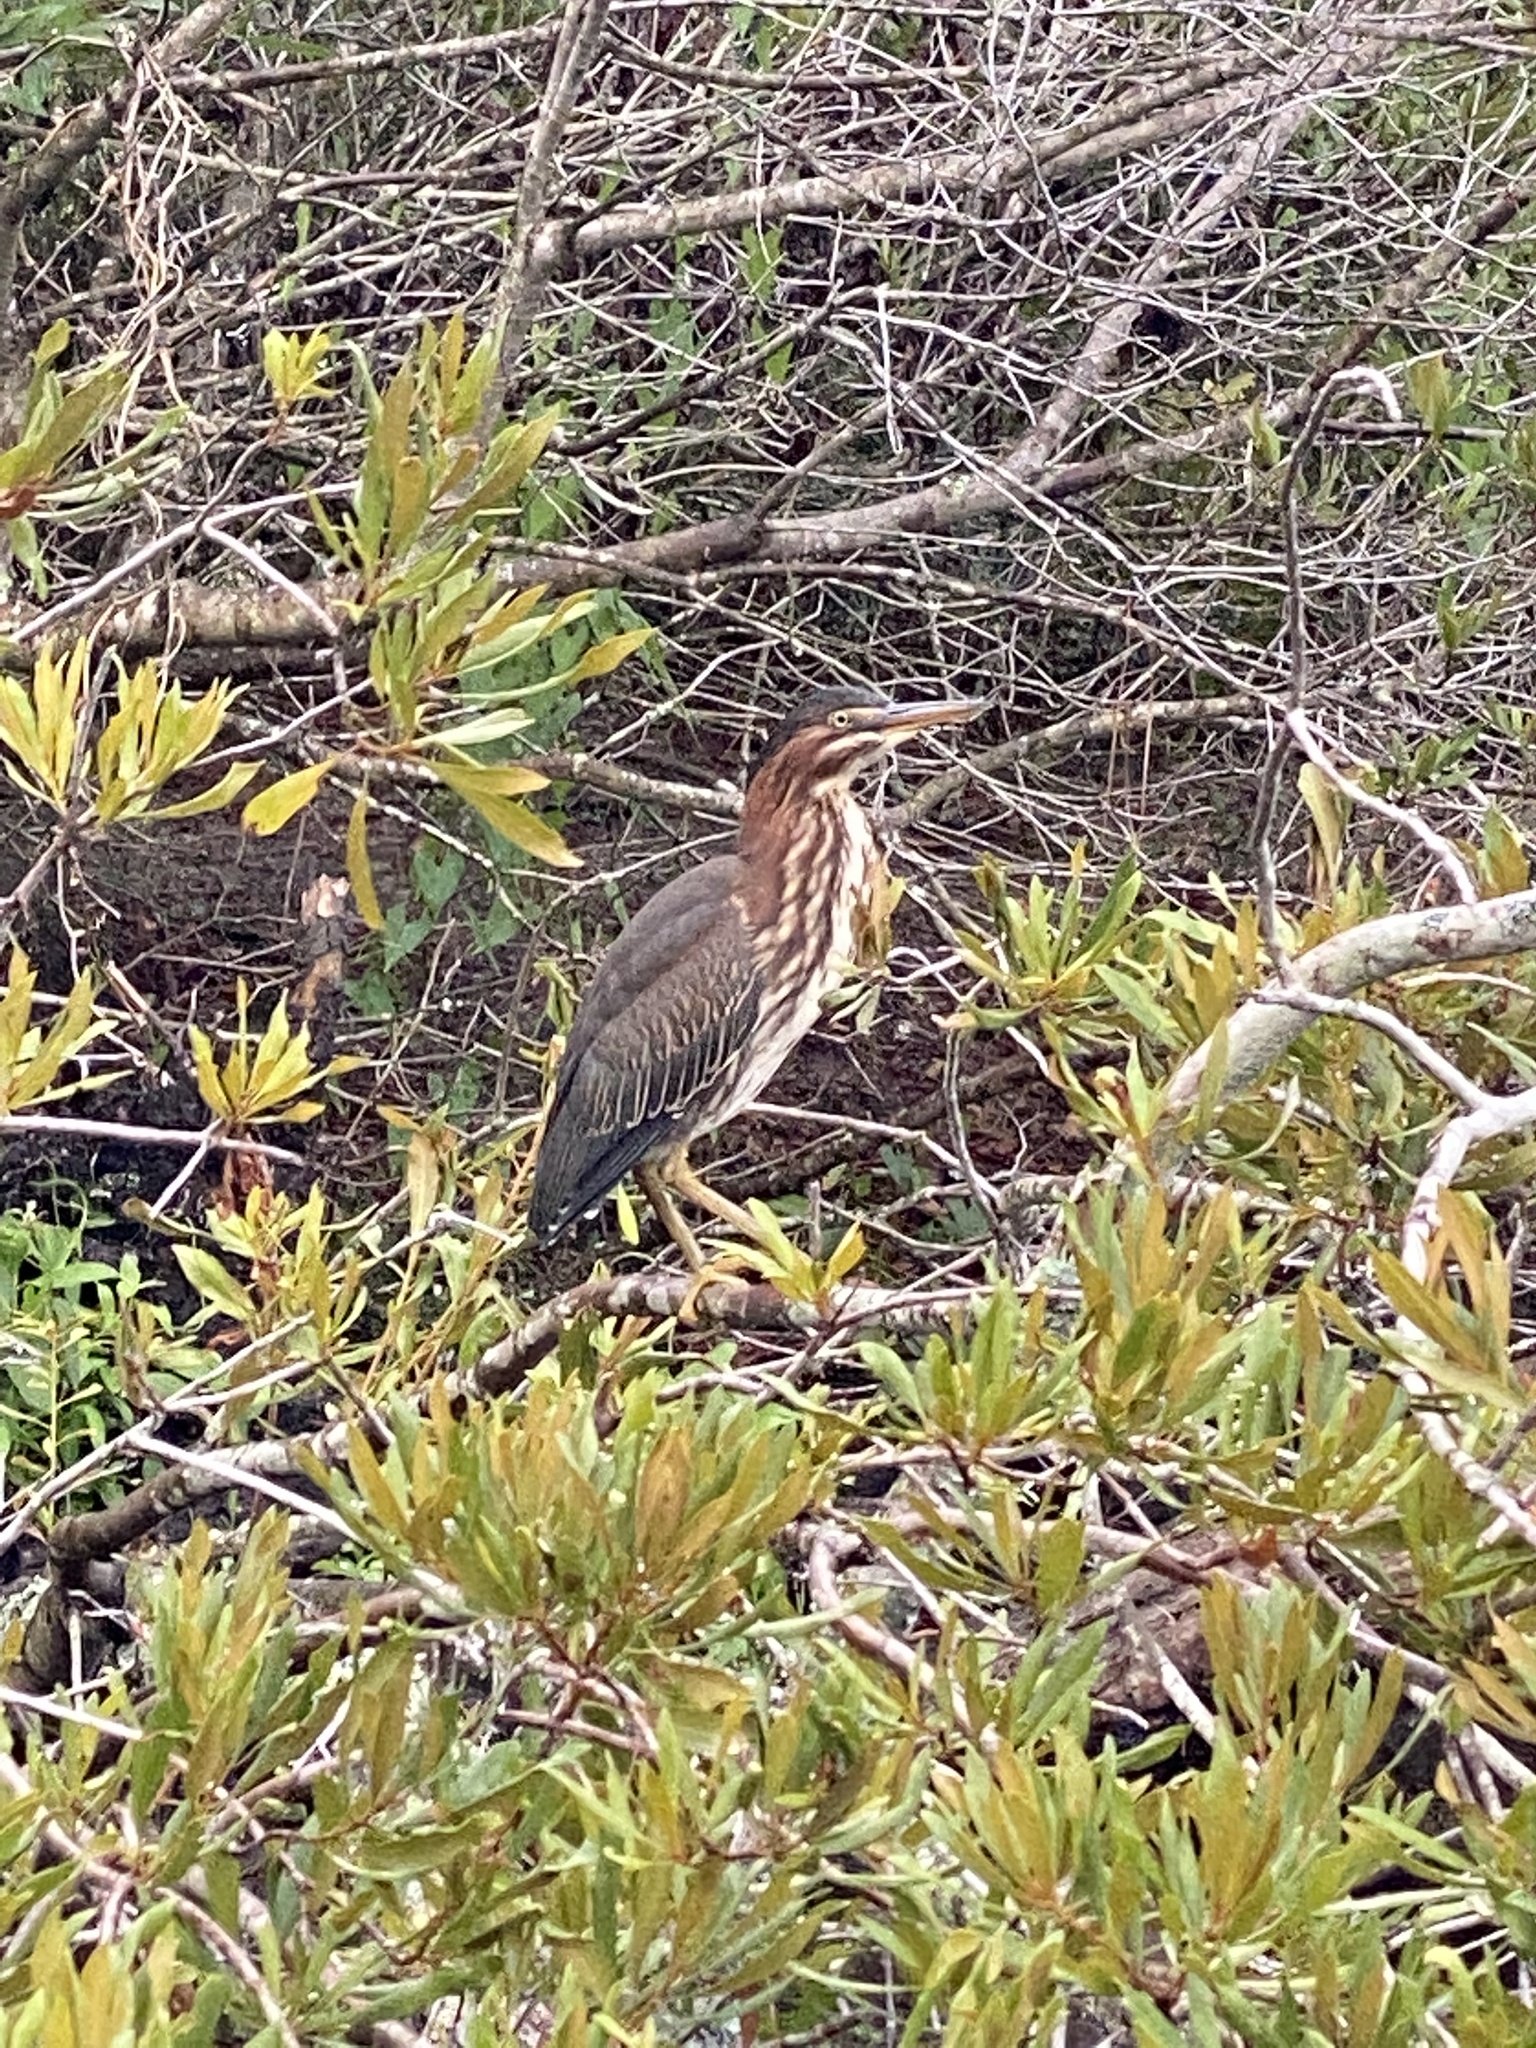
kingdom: Animalia
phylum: Chordata
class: Aves
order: Pelecaniformes
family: Ardeidae
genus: Butorides
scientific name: Butorides virescens
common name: Green heron
